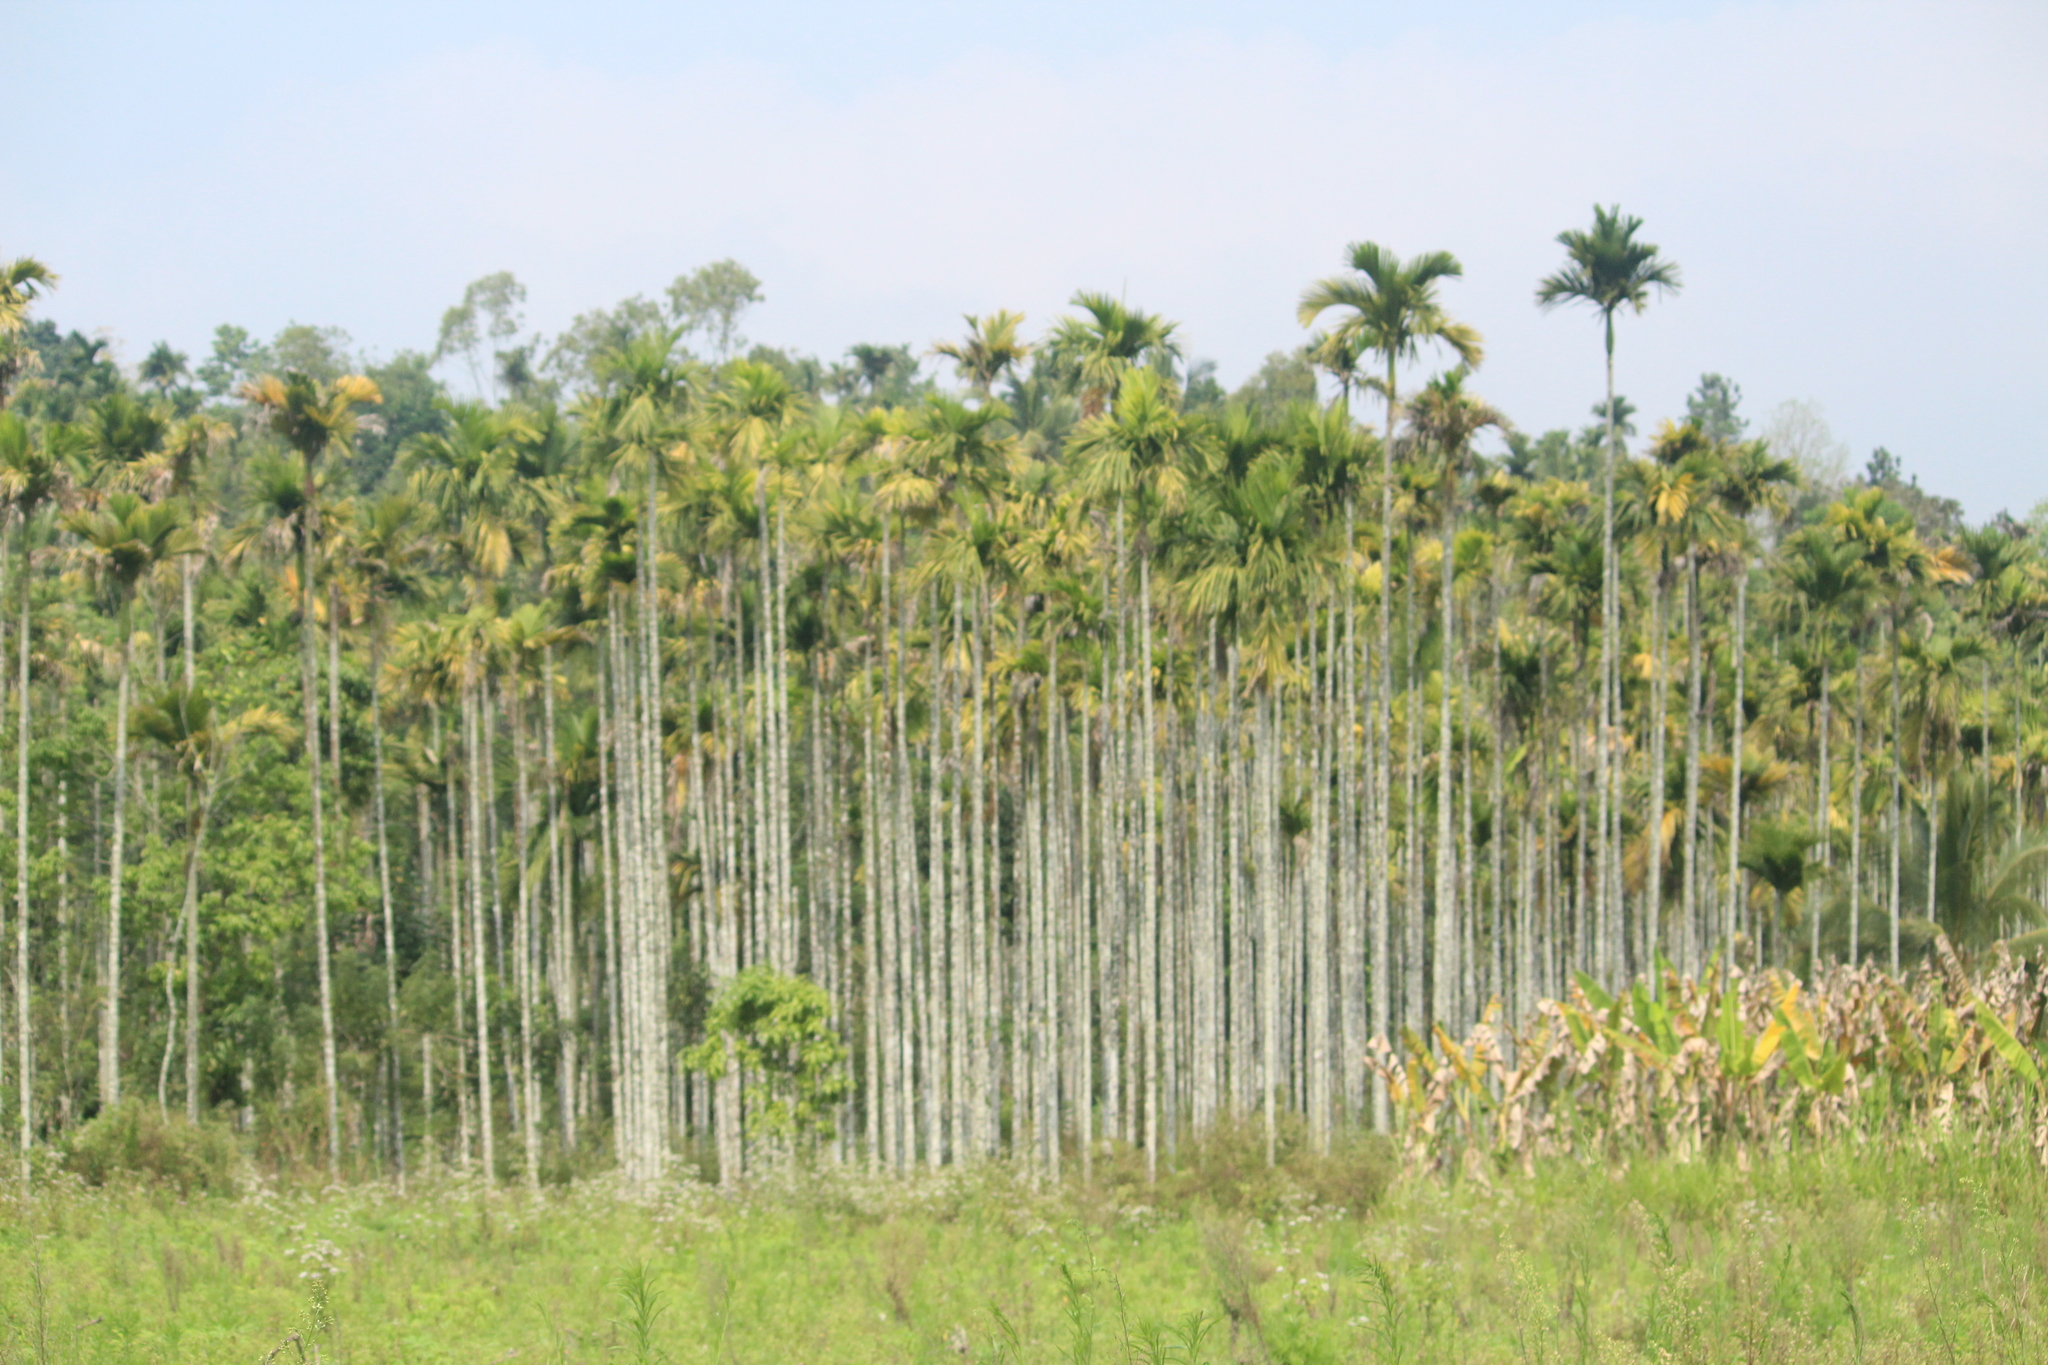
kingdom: Plantae
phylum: Tracheophyta
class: Liliopsida
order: Arecales
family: Arecaceae
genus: Areca
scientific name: Areca catechu
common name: Indian-nut
